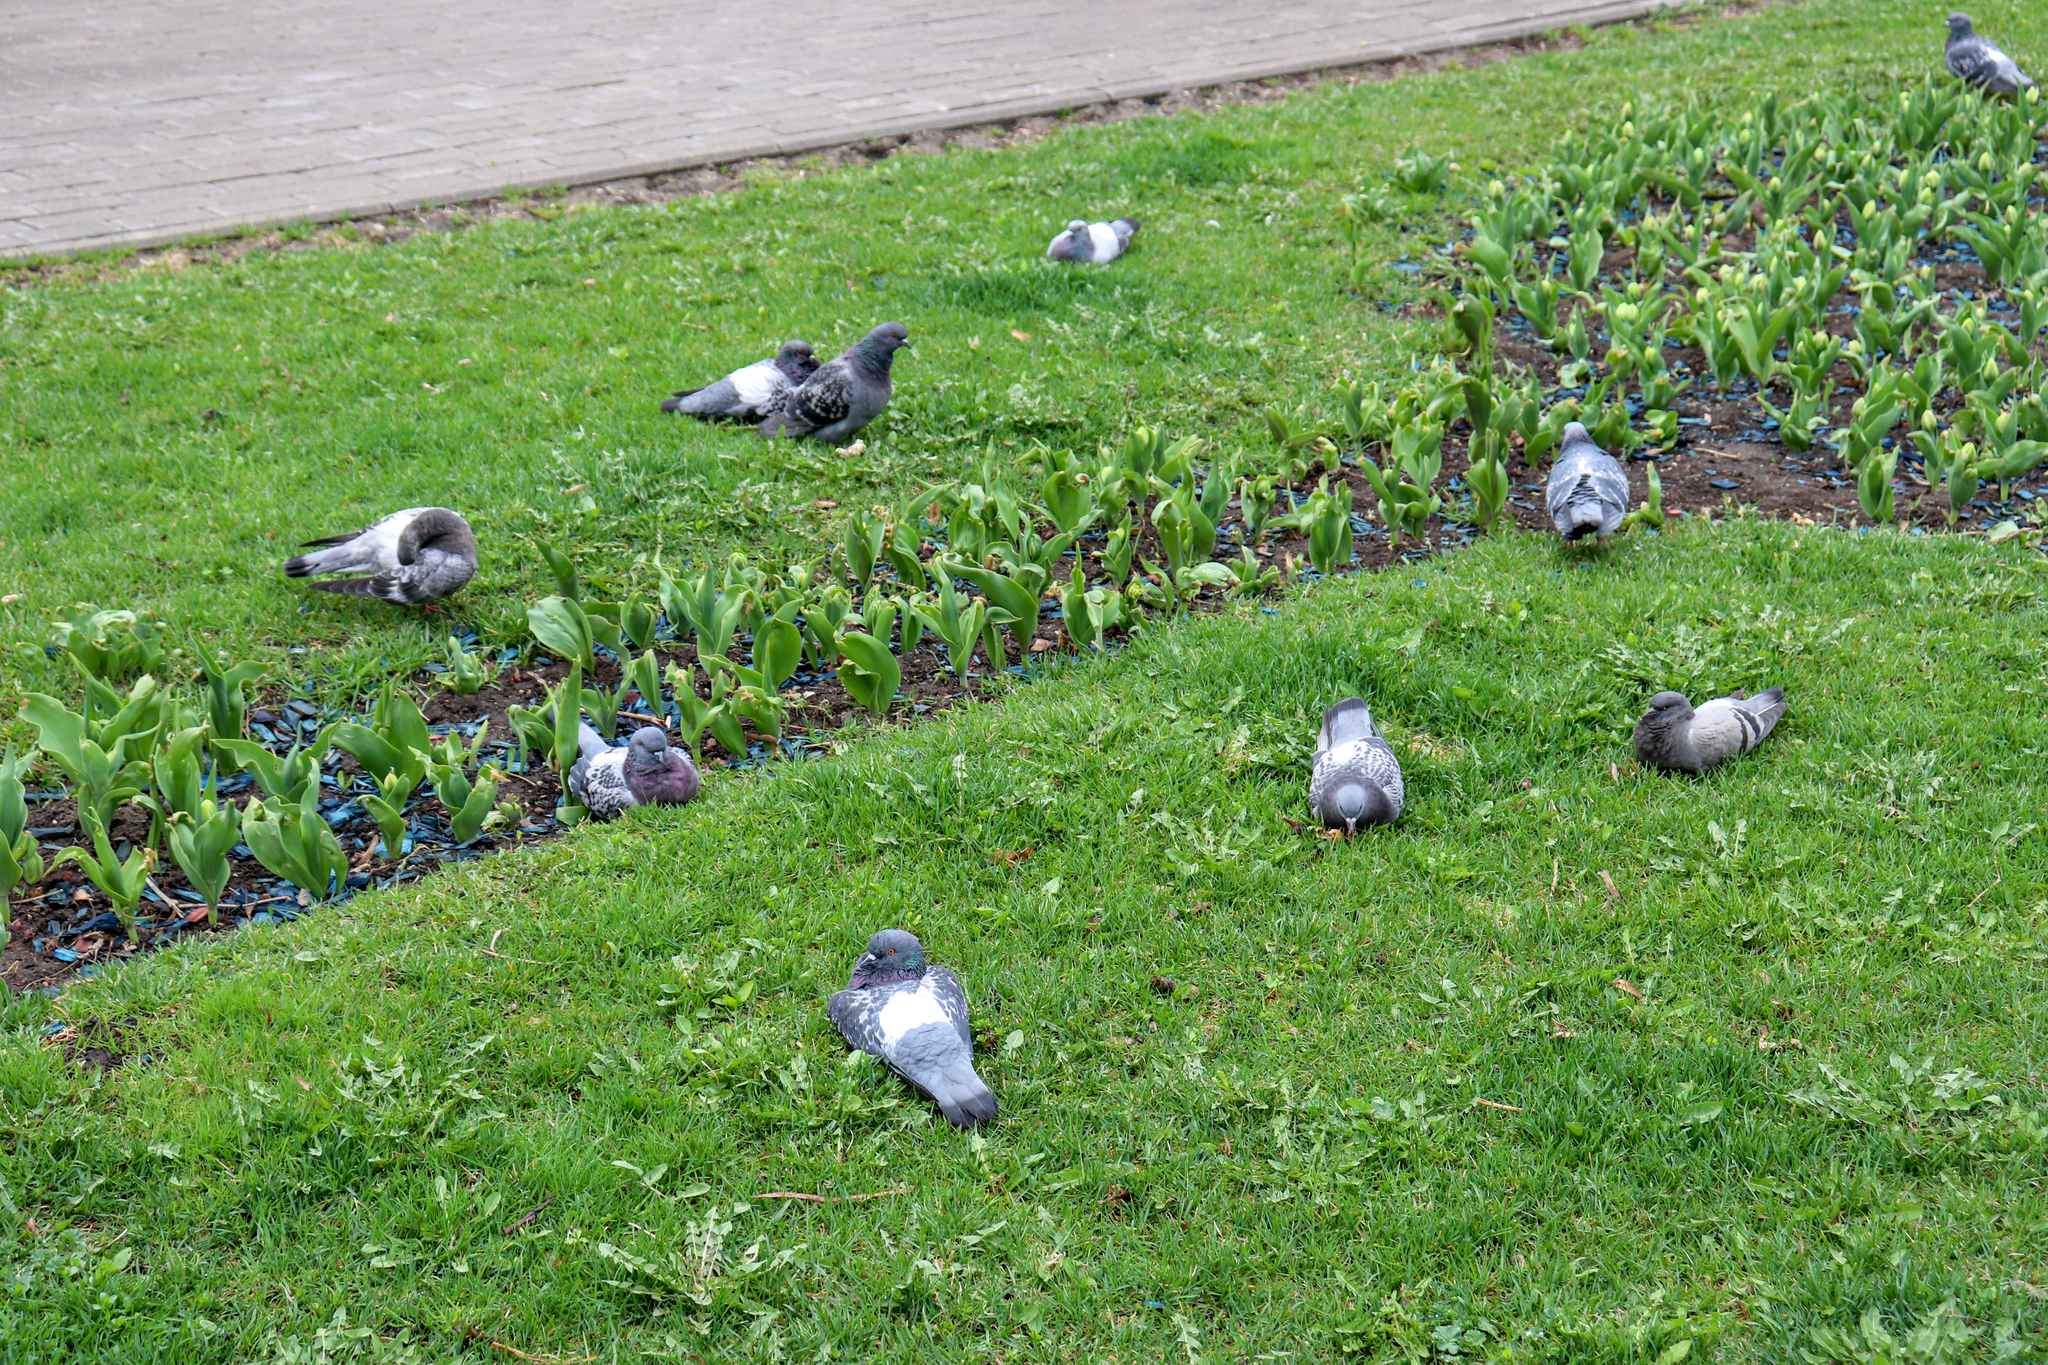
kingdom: Animalia
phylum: Chordata
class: Aves
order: Columbiformes
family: Columbidae
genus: Columba
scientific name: Columba livia
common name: Rock pigeon
